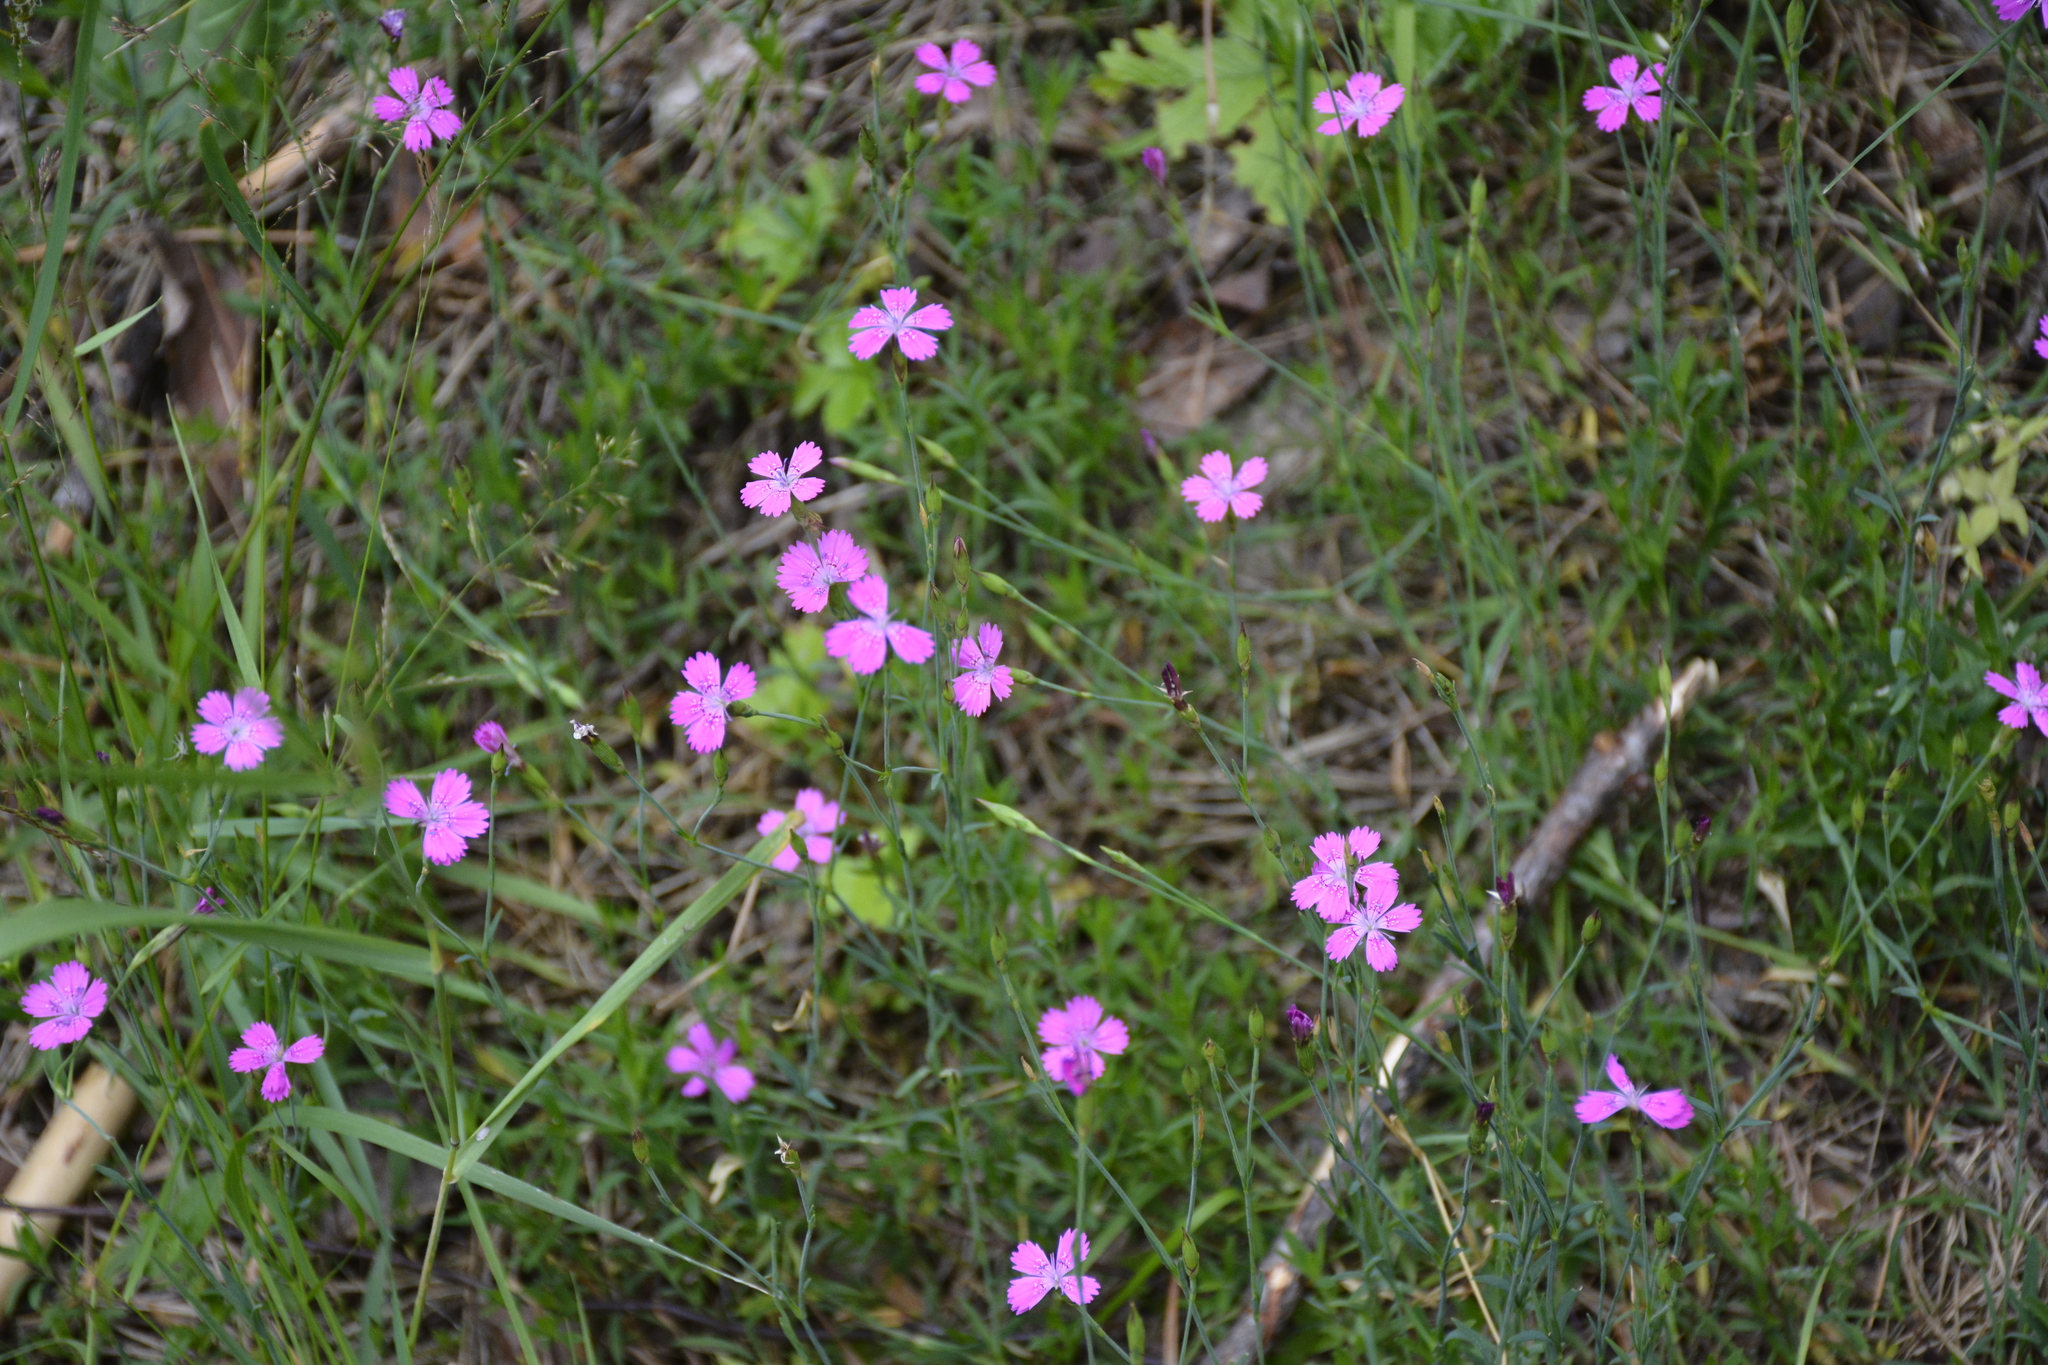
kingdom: Plantae
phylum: Tracheophyta
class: Magnoliopsida
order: Caryophyllales
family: Caryophyllaceae
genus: Dianthus
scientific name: Dianthus deltoides
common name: Maiden pink
